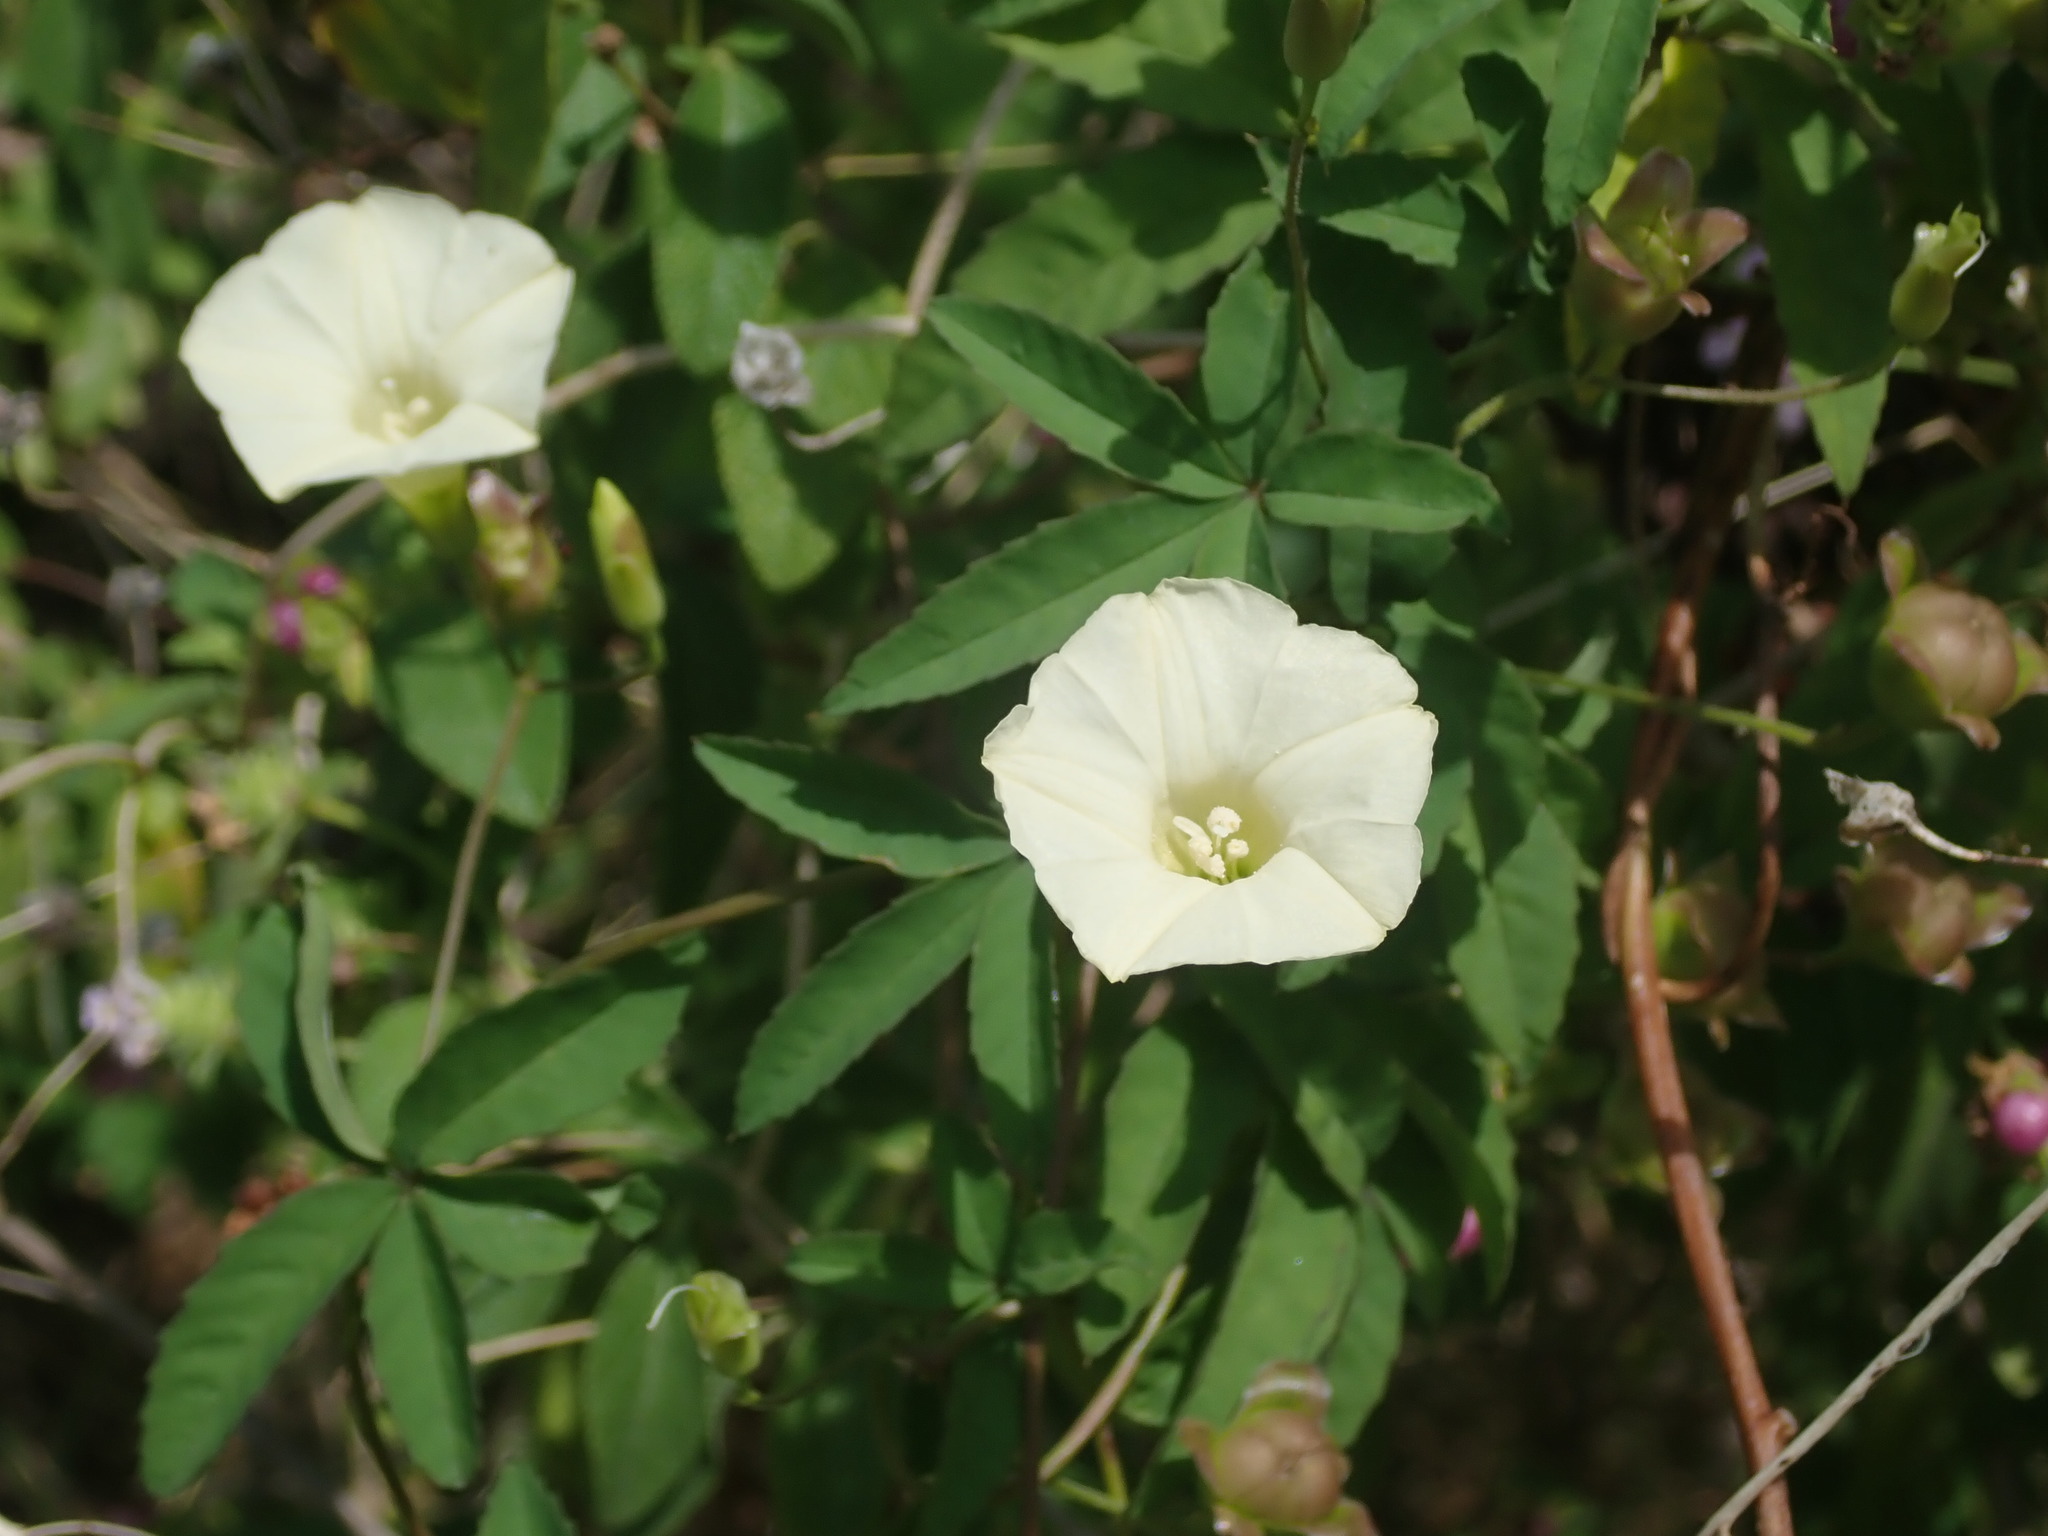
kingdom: Plantae
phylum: Tracheophyta
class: Magnoliopsida
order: Solanales
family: Convolvulaceae
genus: Distimake
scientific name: Distimake quinquefolius
